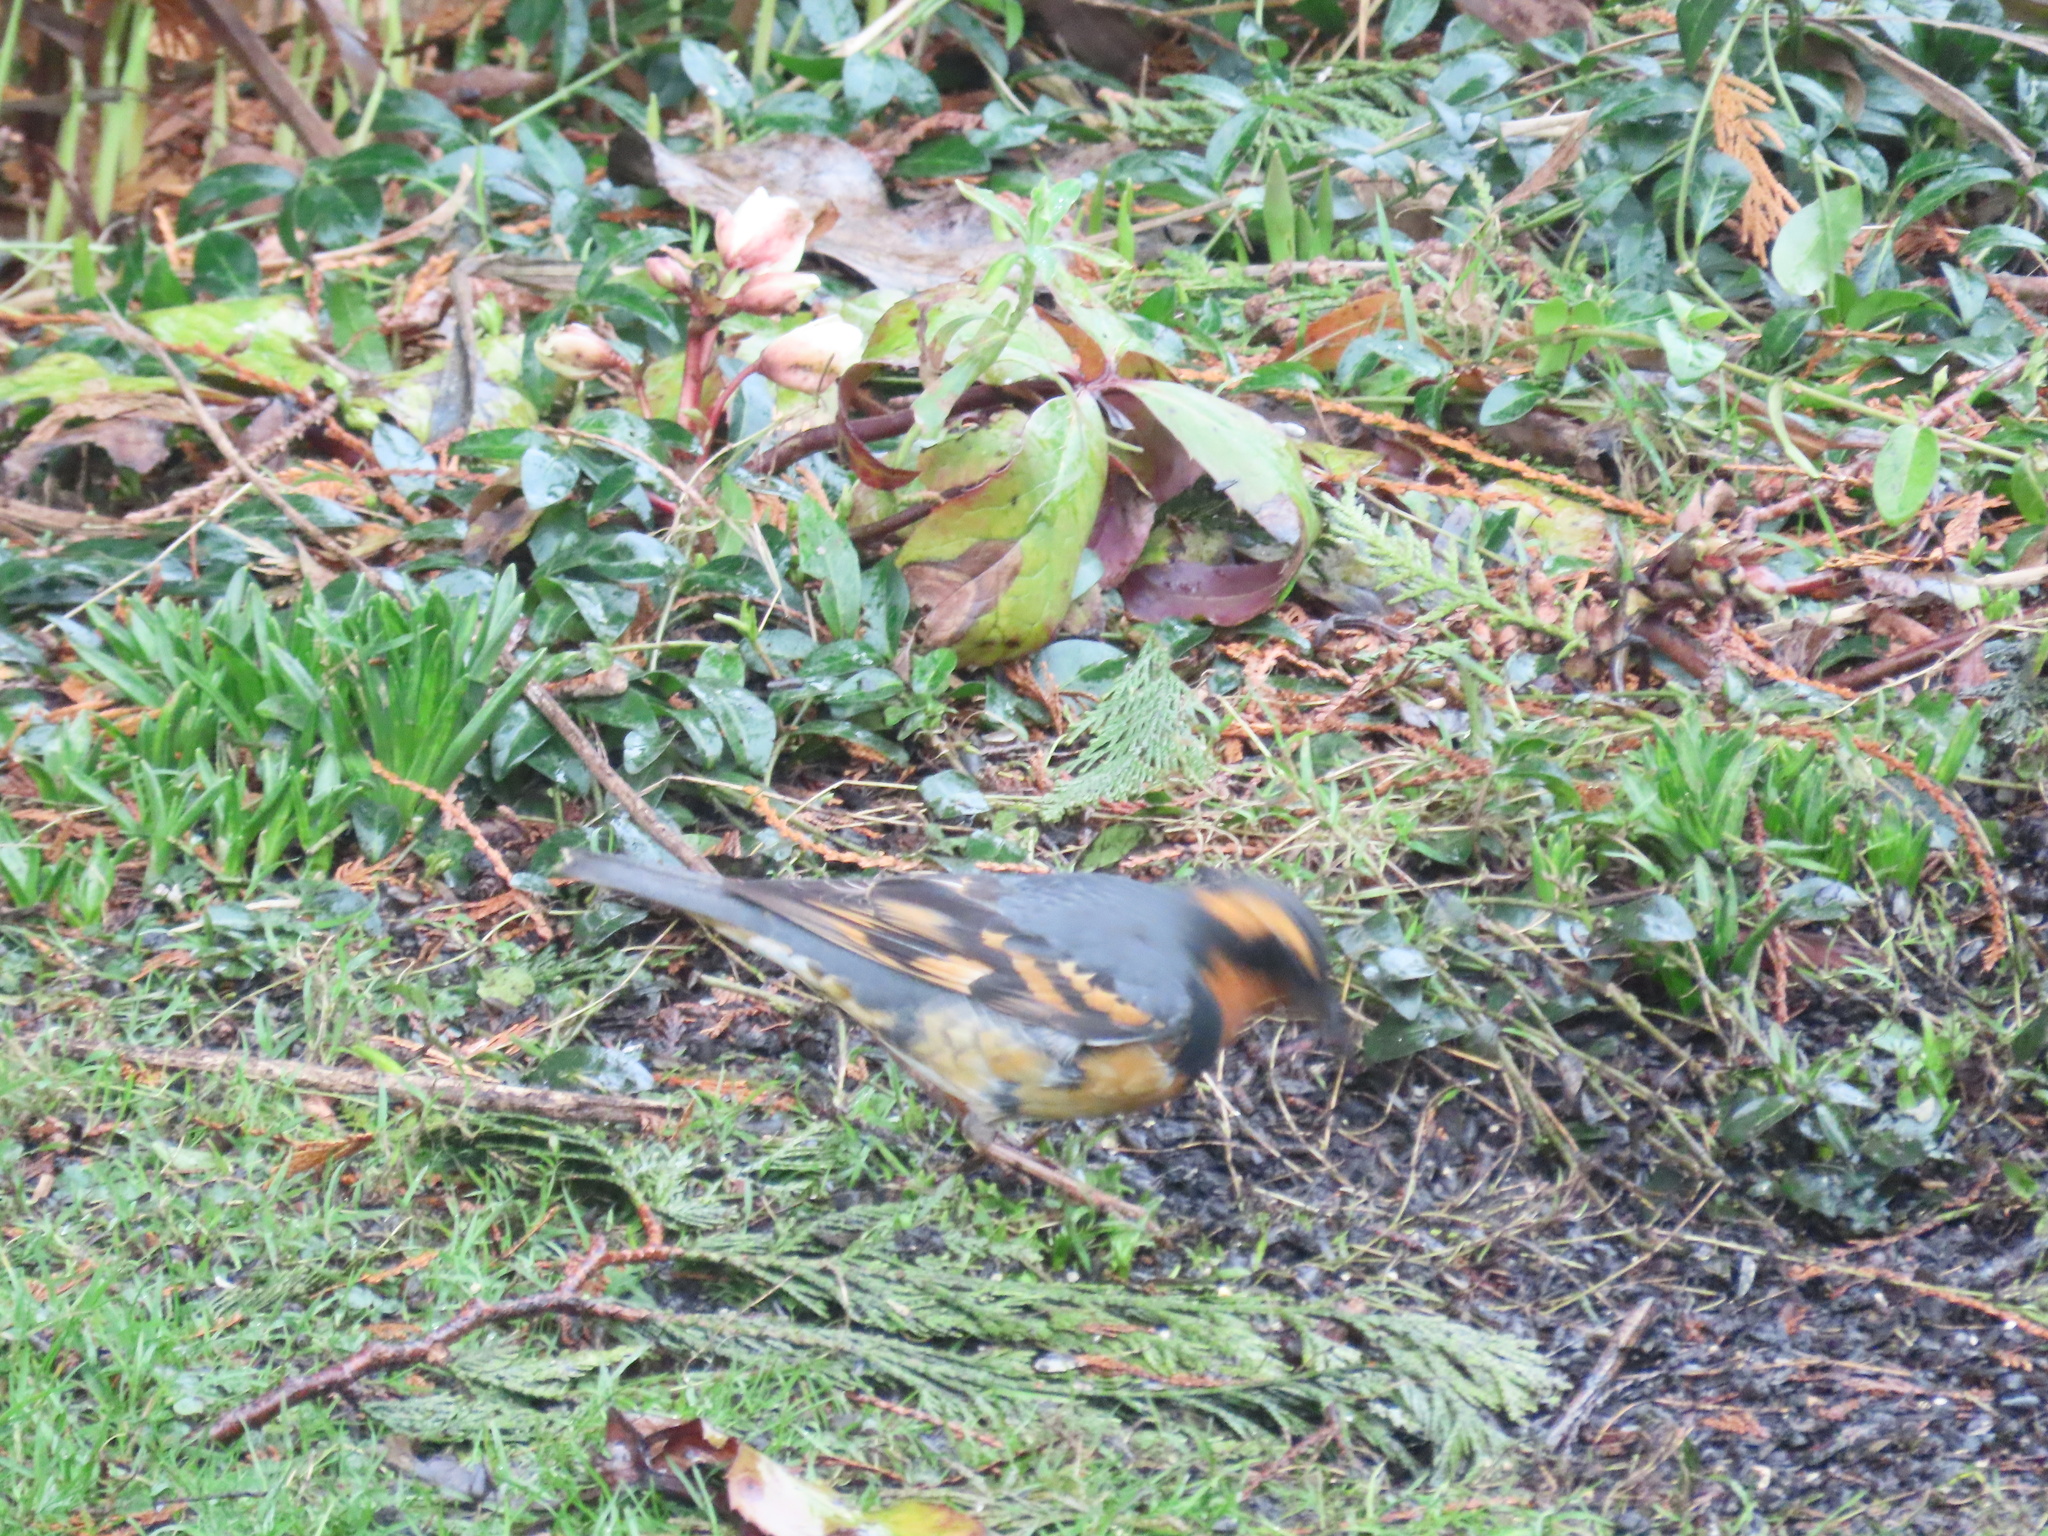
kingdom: Animalia
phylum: Chordata
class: Aves
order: Passeriformes
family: Turdidae
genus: Ixoreus
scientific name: Ixoreus naevius
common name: Varied thrush
